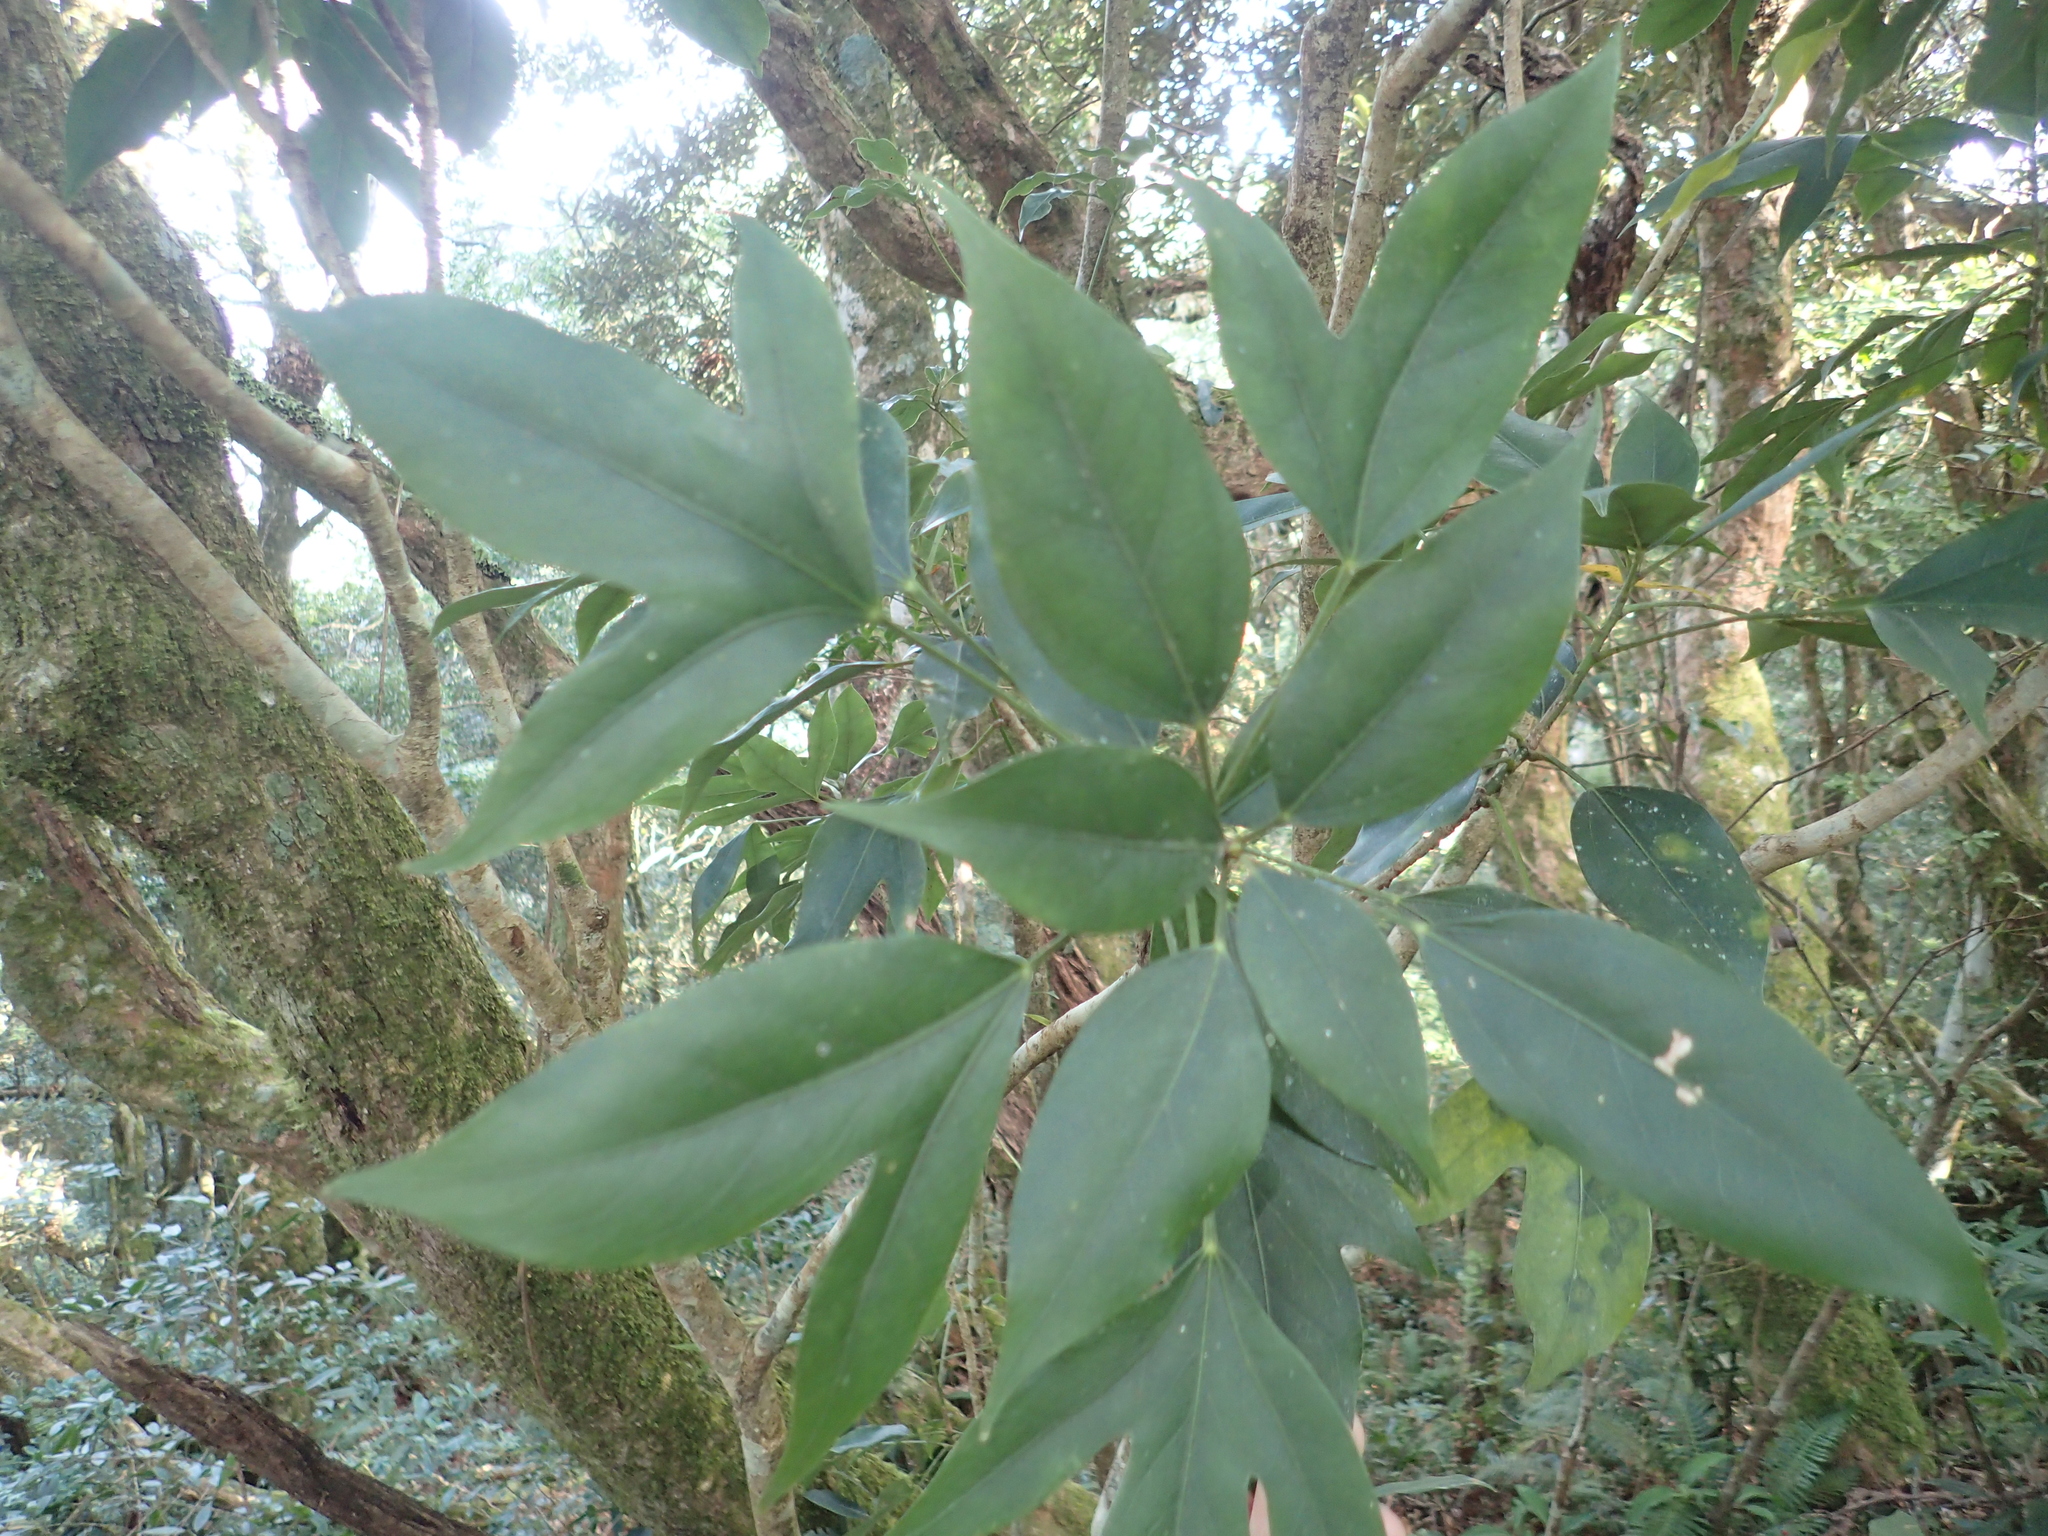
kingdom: Plantae
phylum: Tracheophyta
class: Magnoliopsida
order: Apiales
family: Araliaceae
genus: Dendropanax
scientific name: Dendropanax dentiger
